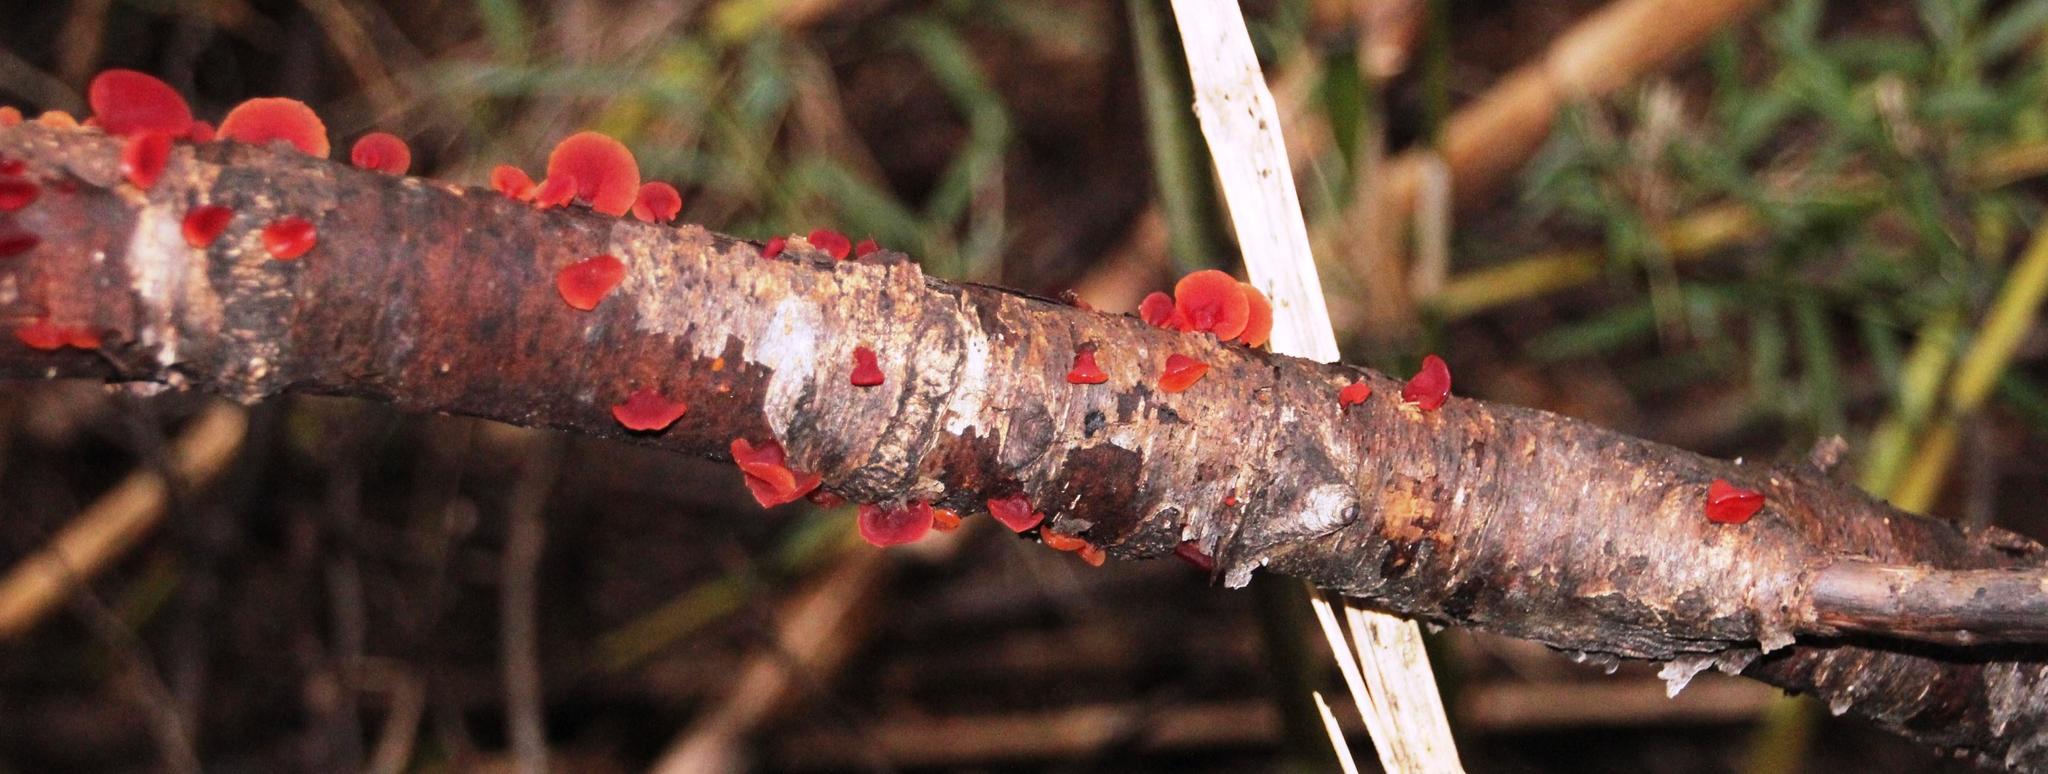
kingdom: Fungi
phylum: Basidiomycota
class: Dacrymycetes
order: Dacrymycetales
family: Dacrymycetaceae
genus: Guepiniopsis
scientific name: Guepiniopsis alpina
